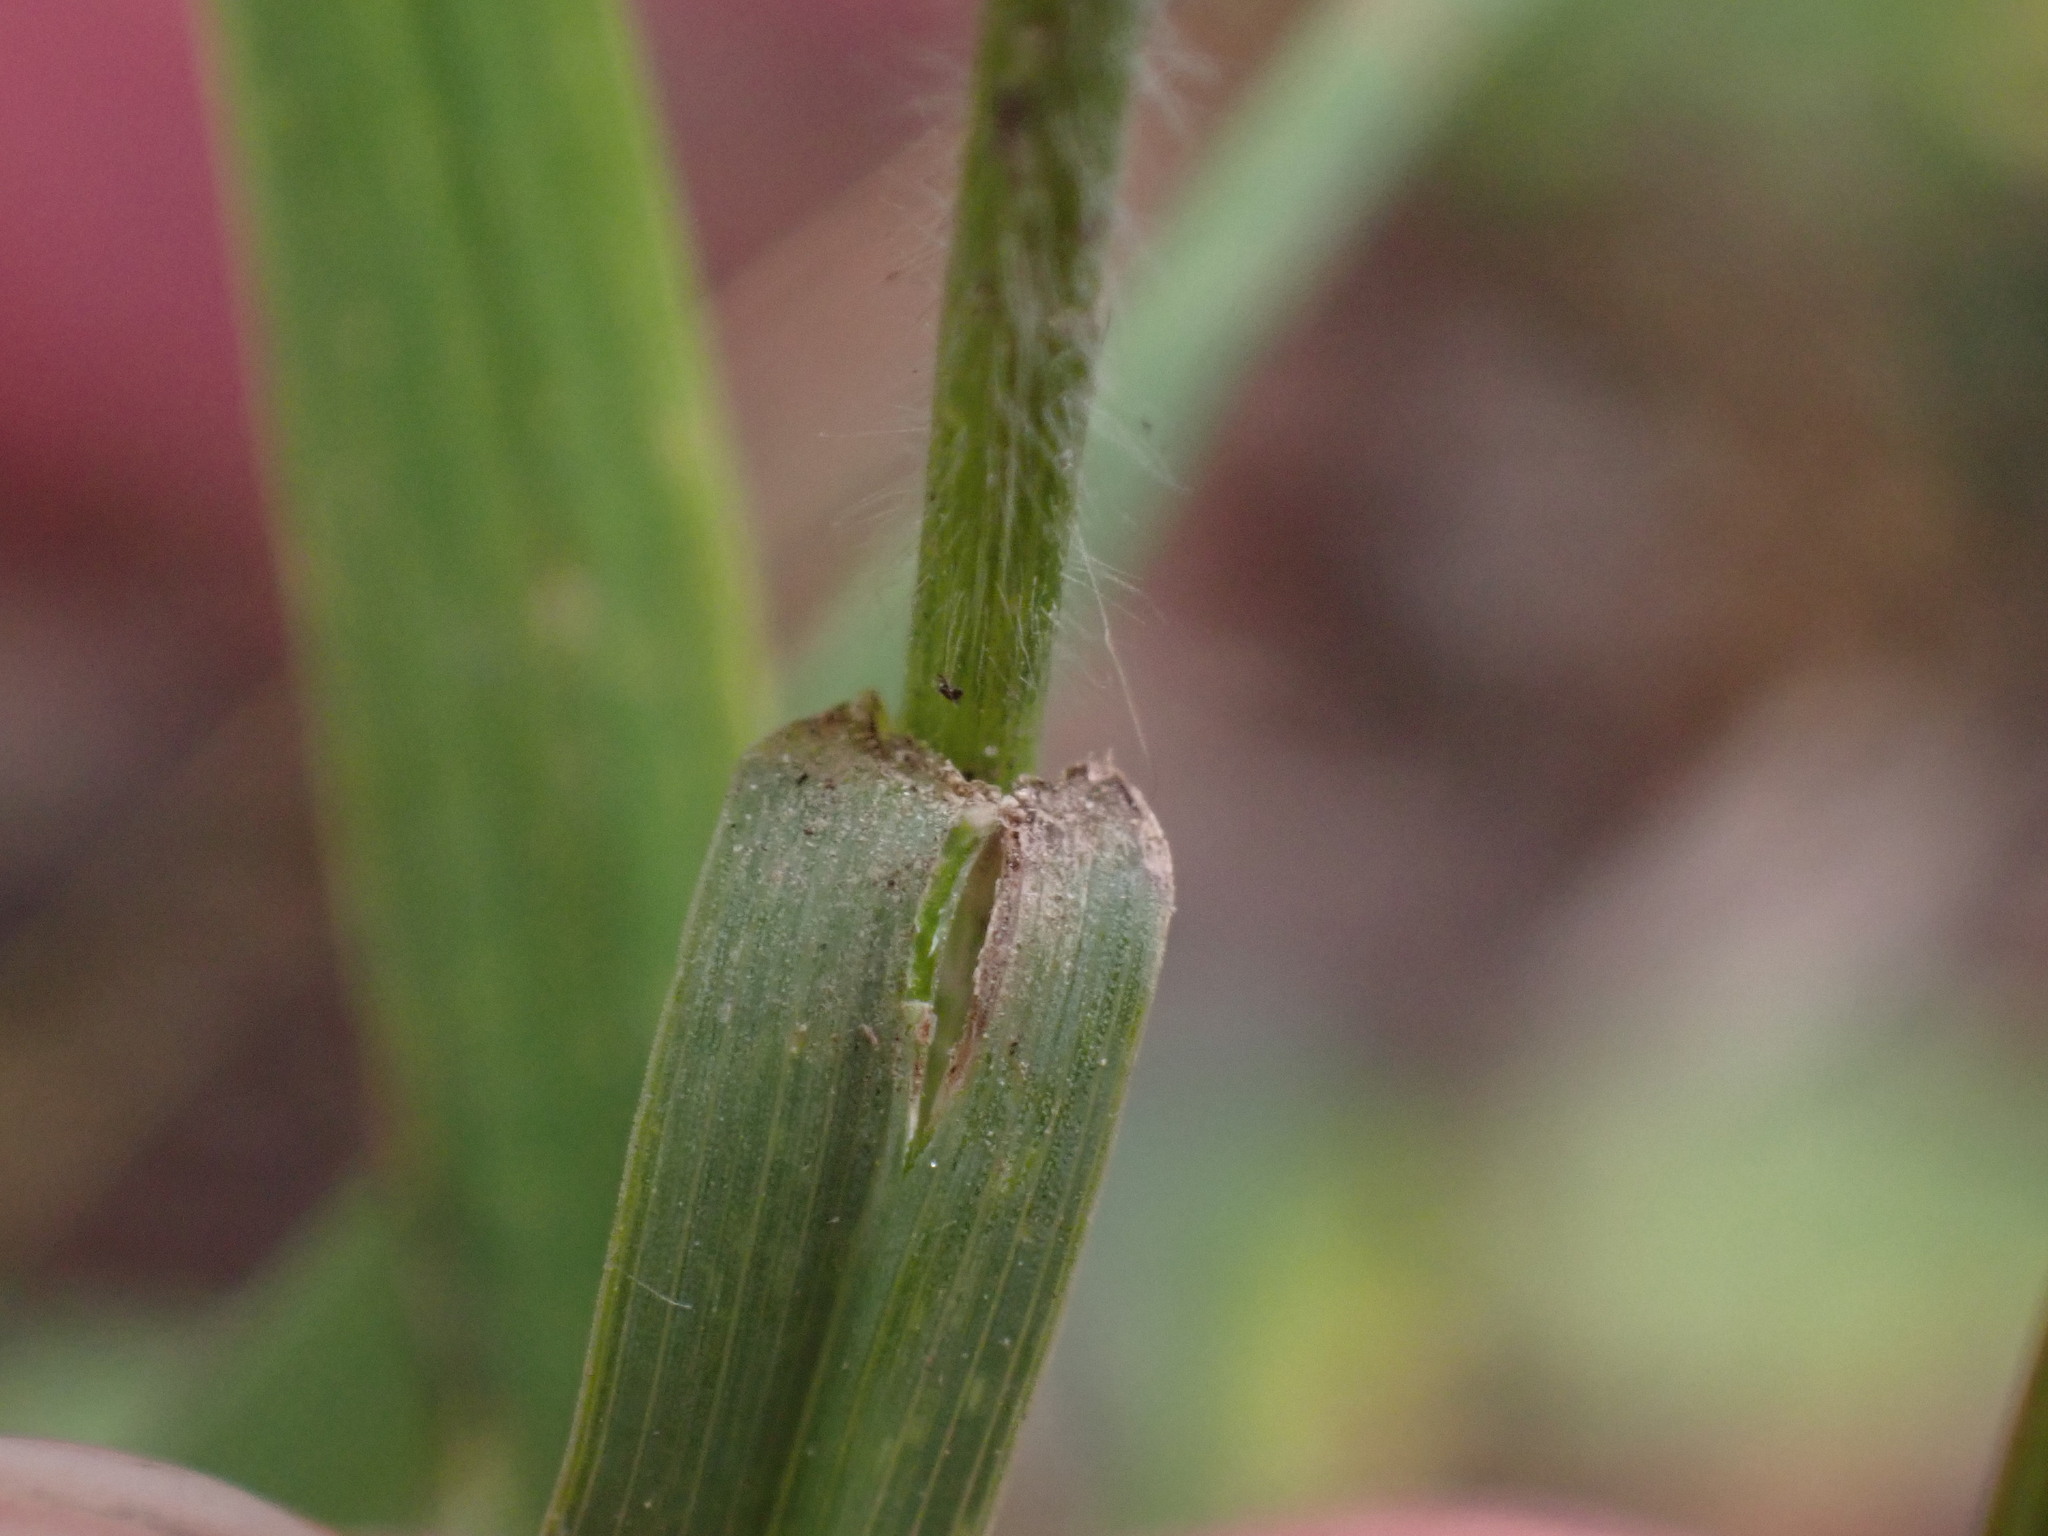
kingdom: Plantae
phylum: Tracheophyta
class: Liliopsida
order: Poales
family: Poaceae
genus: Bromus
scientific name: Bromus ciliatus
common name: Fringe brome
